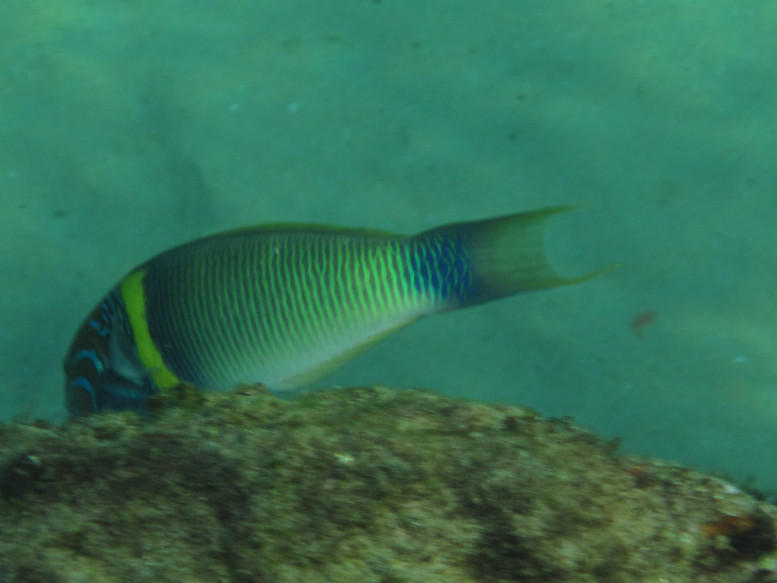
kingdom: Animalia
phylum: Chordata
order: Perciformes
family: Labridae
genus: Thalassoma
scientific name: Thalassoma hebraicum
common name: Goldbar wrasse
